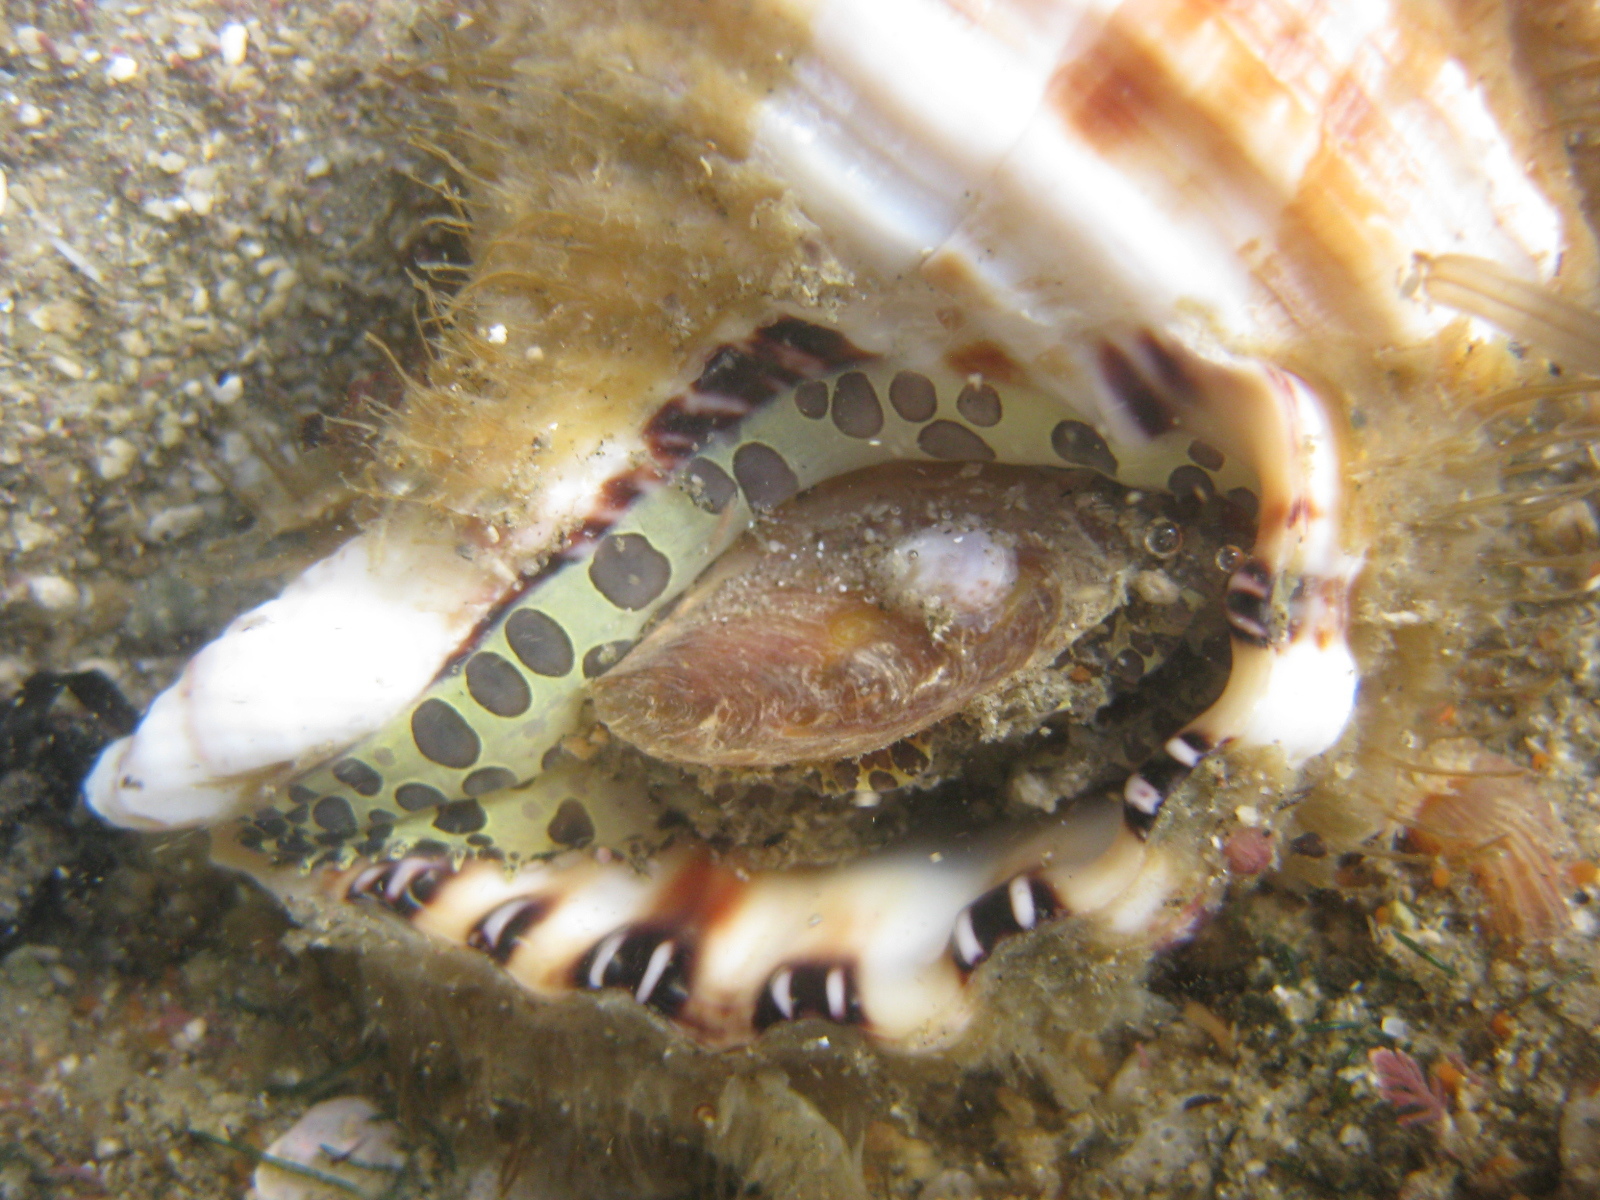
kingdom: Animalia
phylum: Mollusca
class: Gastropoda
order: Littorinimorpha
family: Cymatiidae
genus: Monoplex
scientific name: Monoplex parthenopeus
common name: Giant triton
